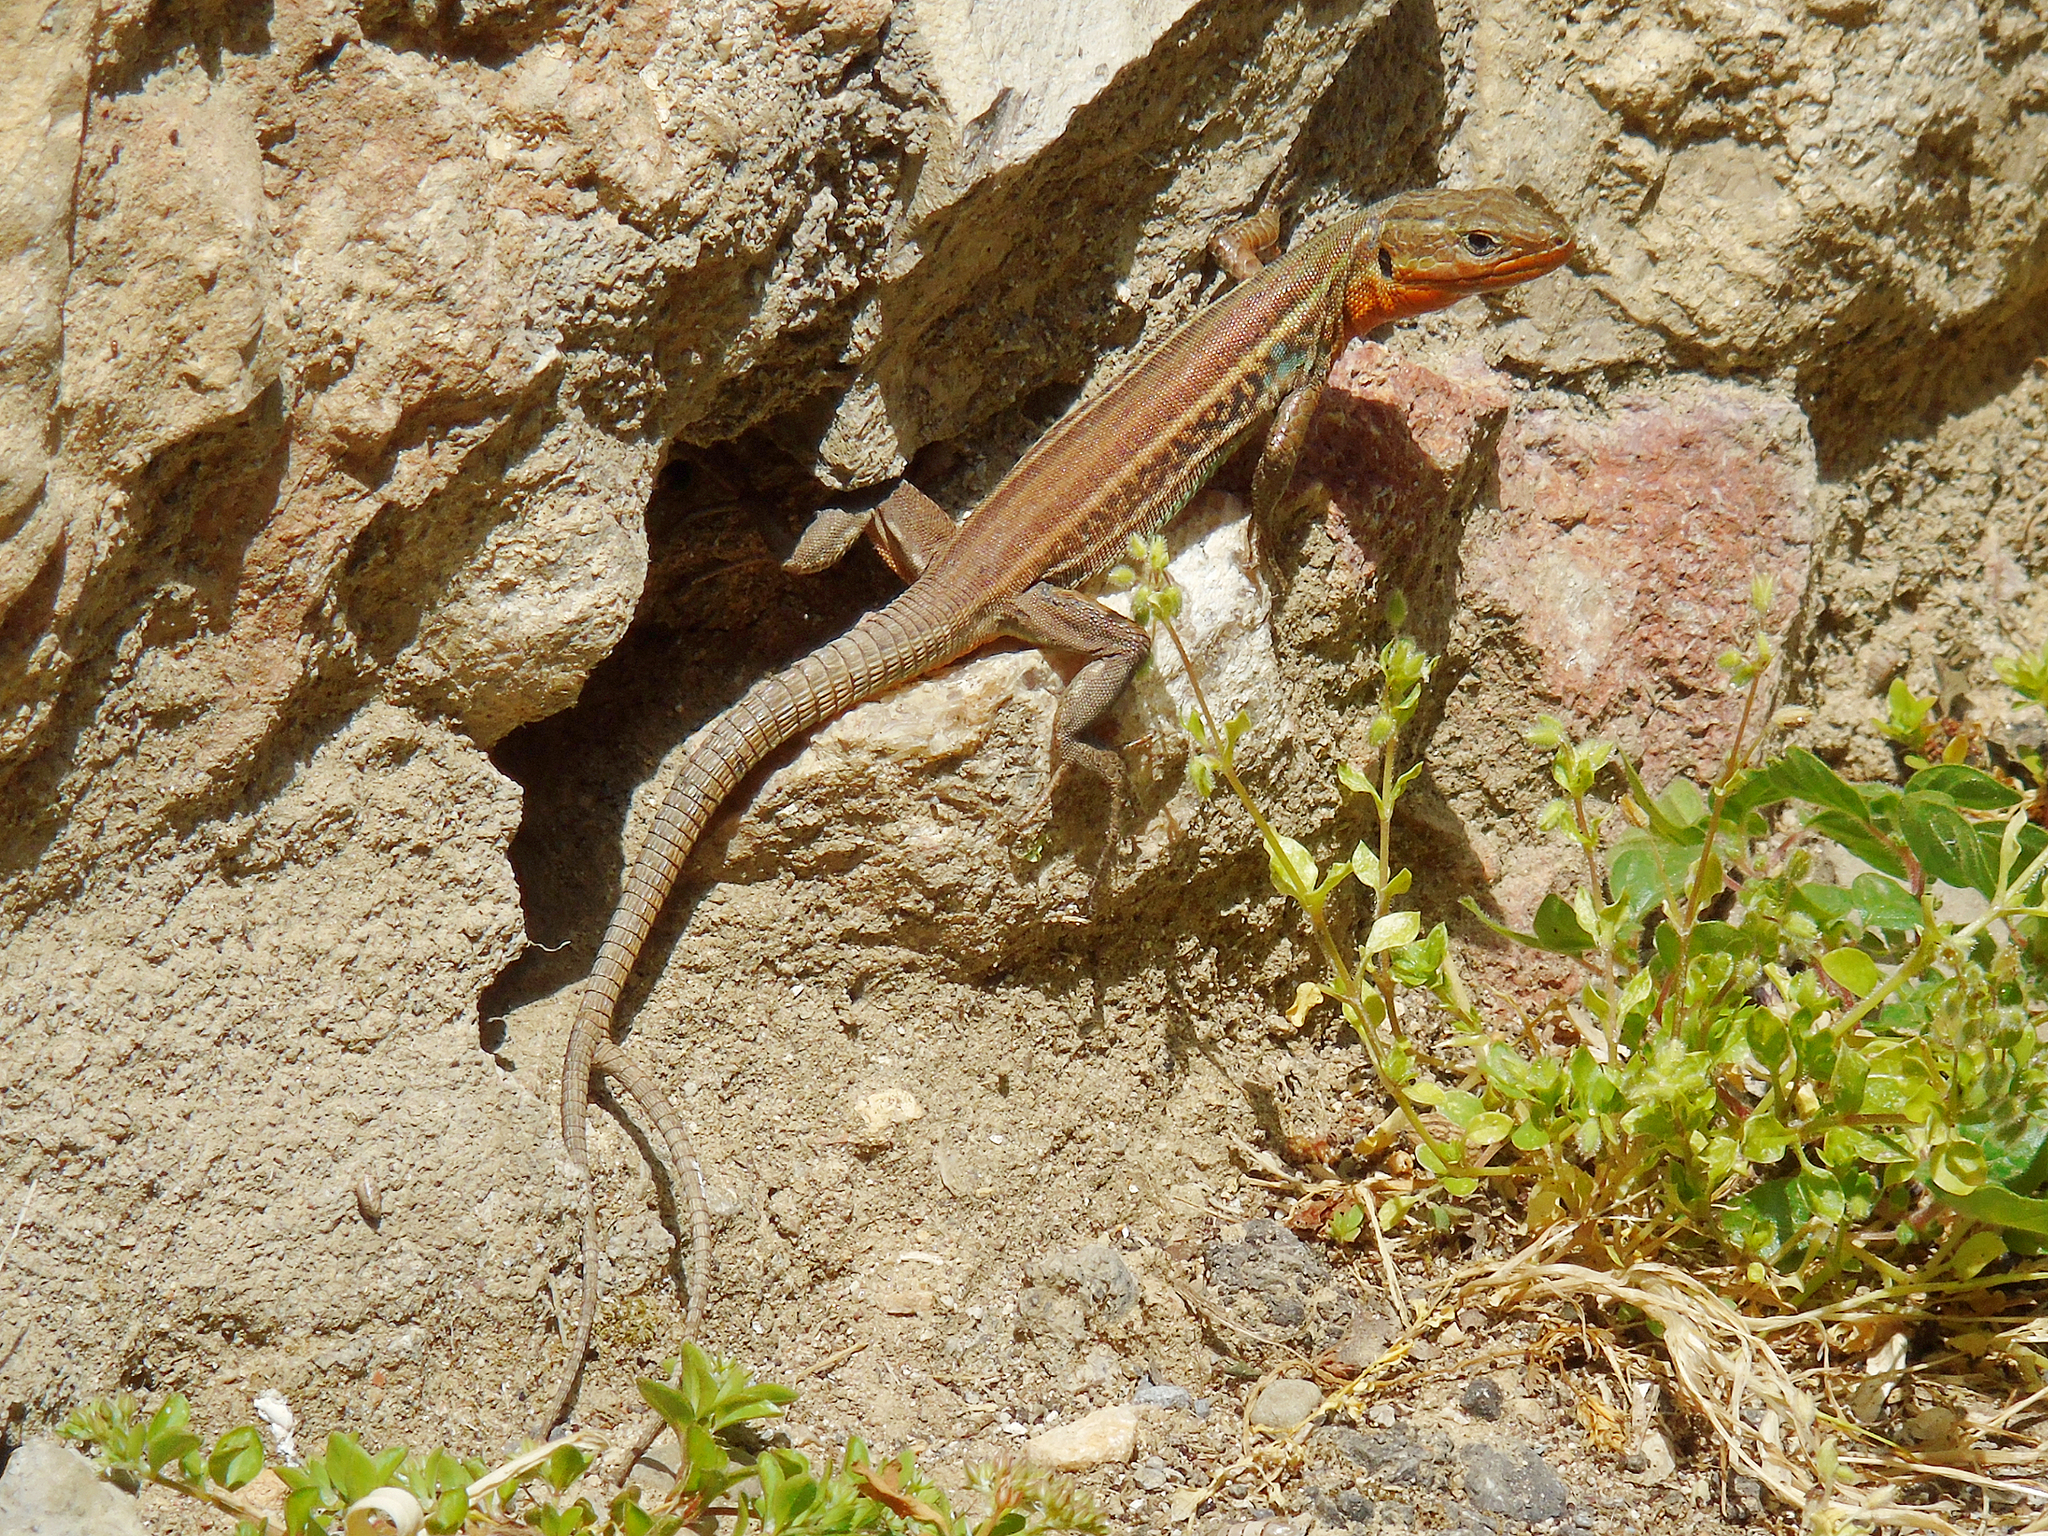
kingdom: Animalia
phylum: Chordata
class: Squamata
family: Lacertidae
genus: Podarcis
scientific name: Podarcis peloponnesiacus
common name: Peloponnese wall lizard
